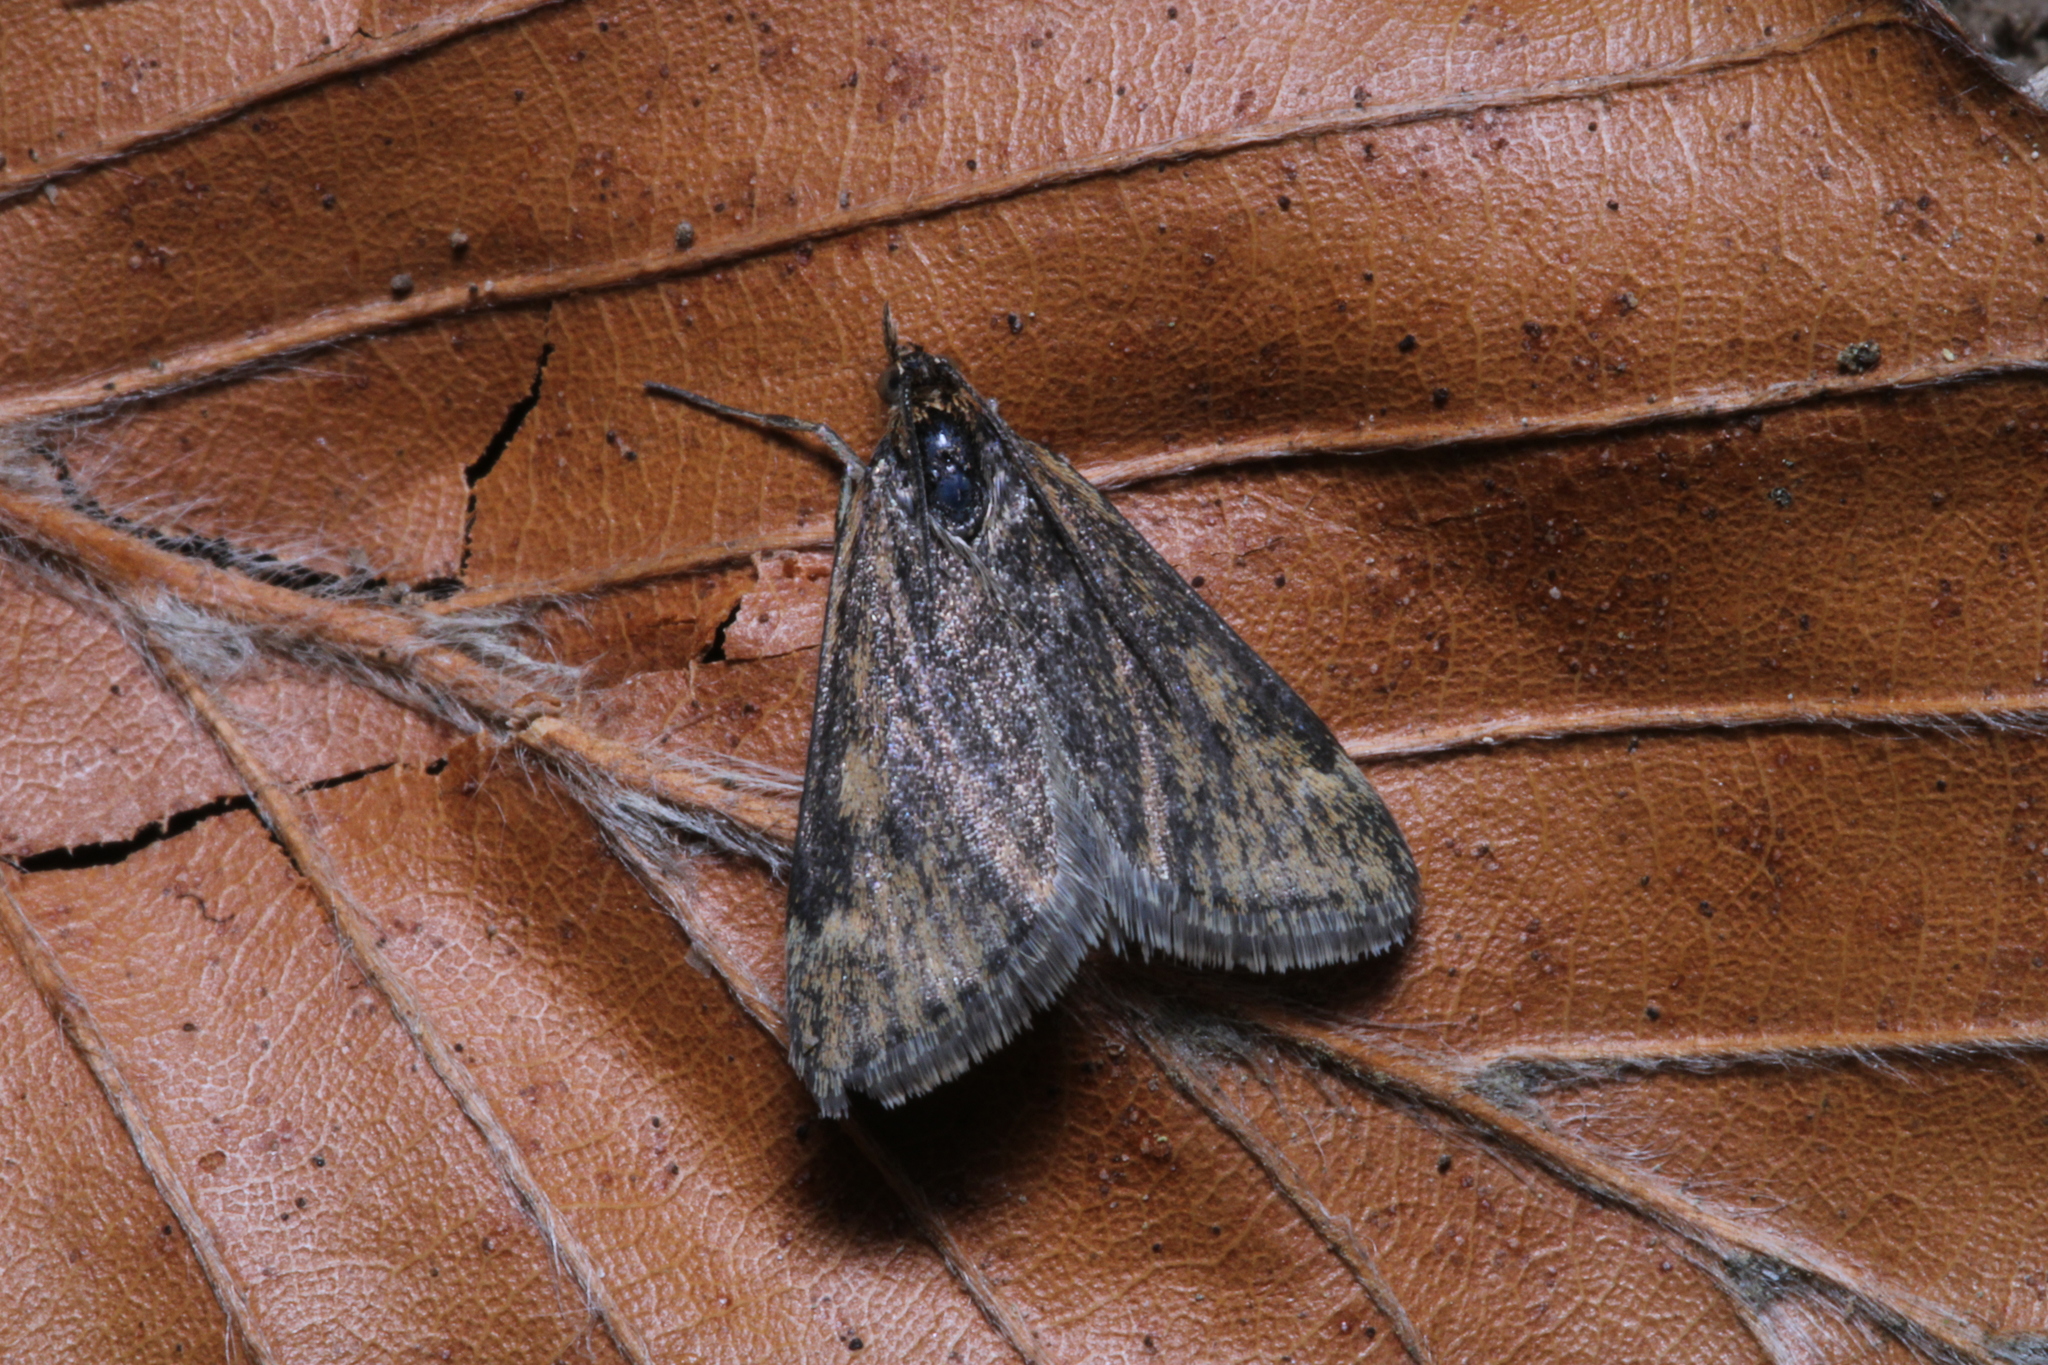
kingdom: Animalia
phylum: Arthropoda
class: Insecta
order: Lepidoptera
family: Crambidae
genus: Pyrausta
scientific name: Pyrausta despicata
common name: Straw-barred pearl
